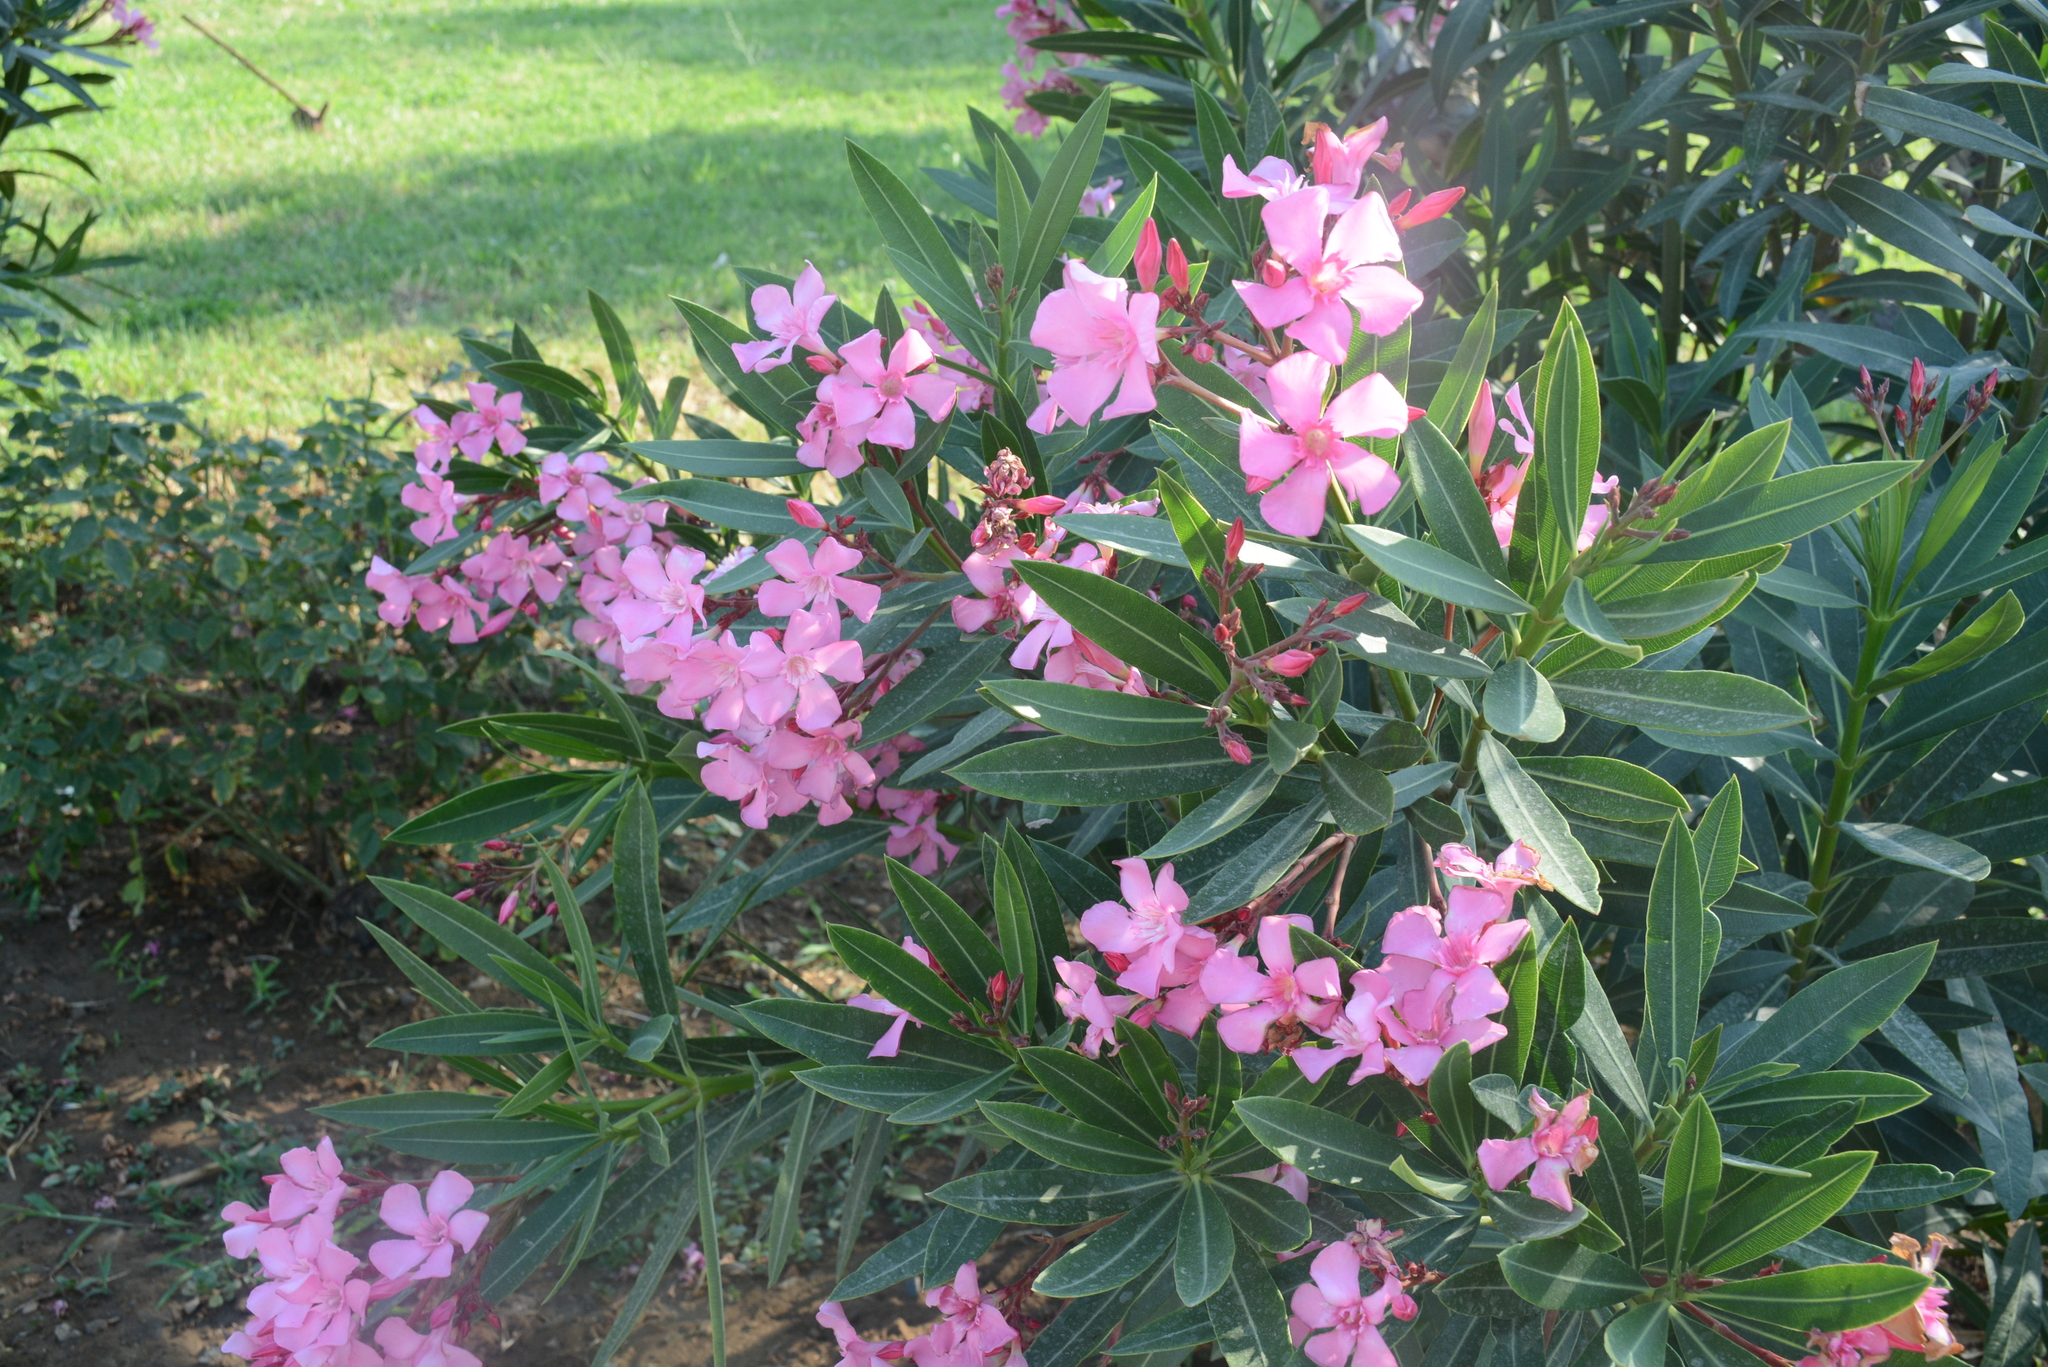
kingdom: Plantae
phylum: Tracheophyta
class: Magnoliopsida
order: Gentianales
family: Apocynaceae
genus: Nerium
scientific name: Nerium oleander
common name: Oleander
